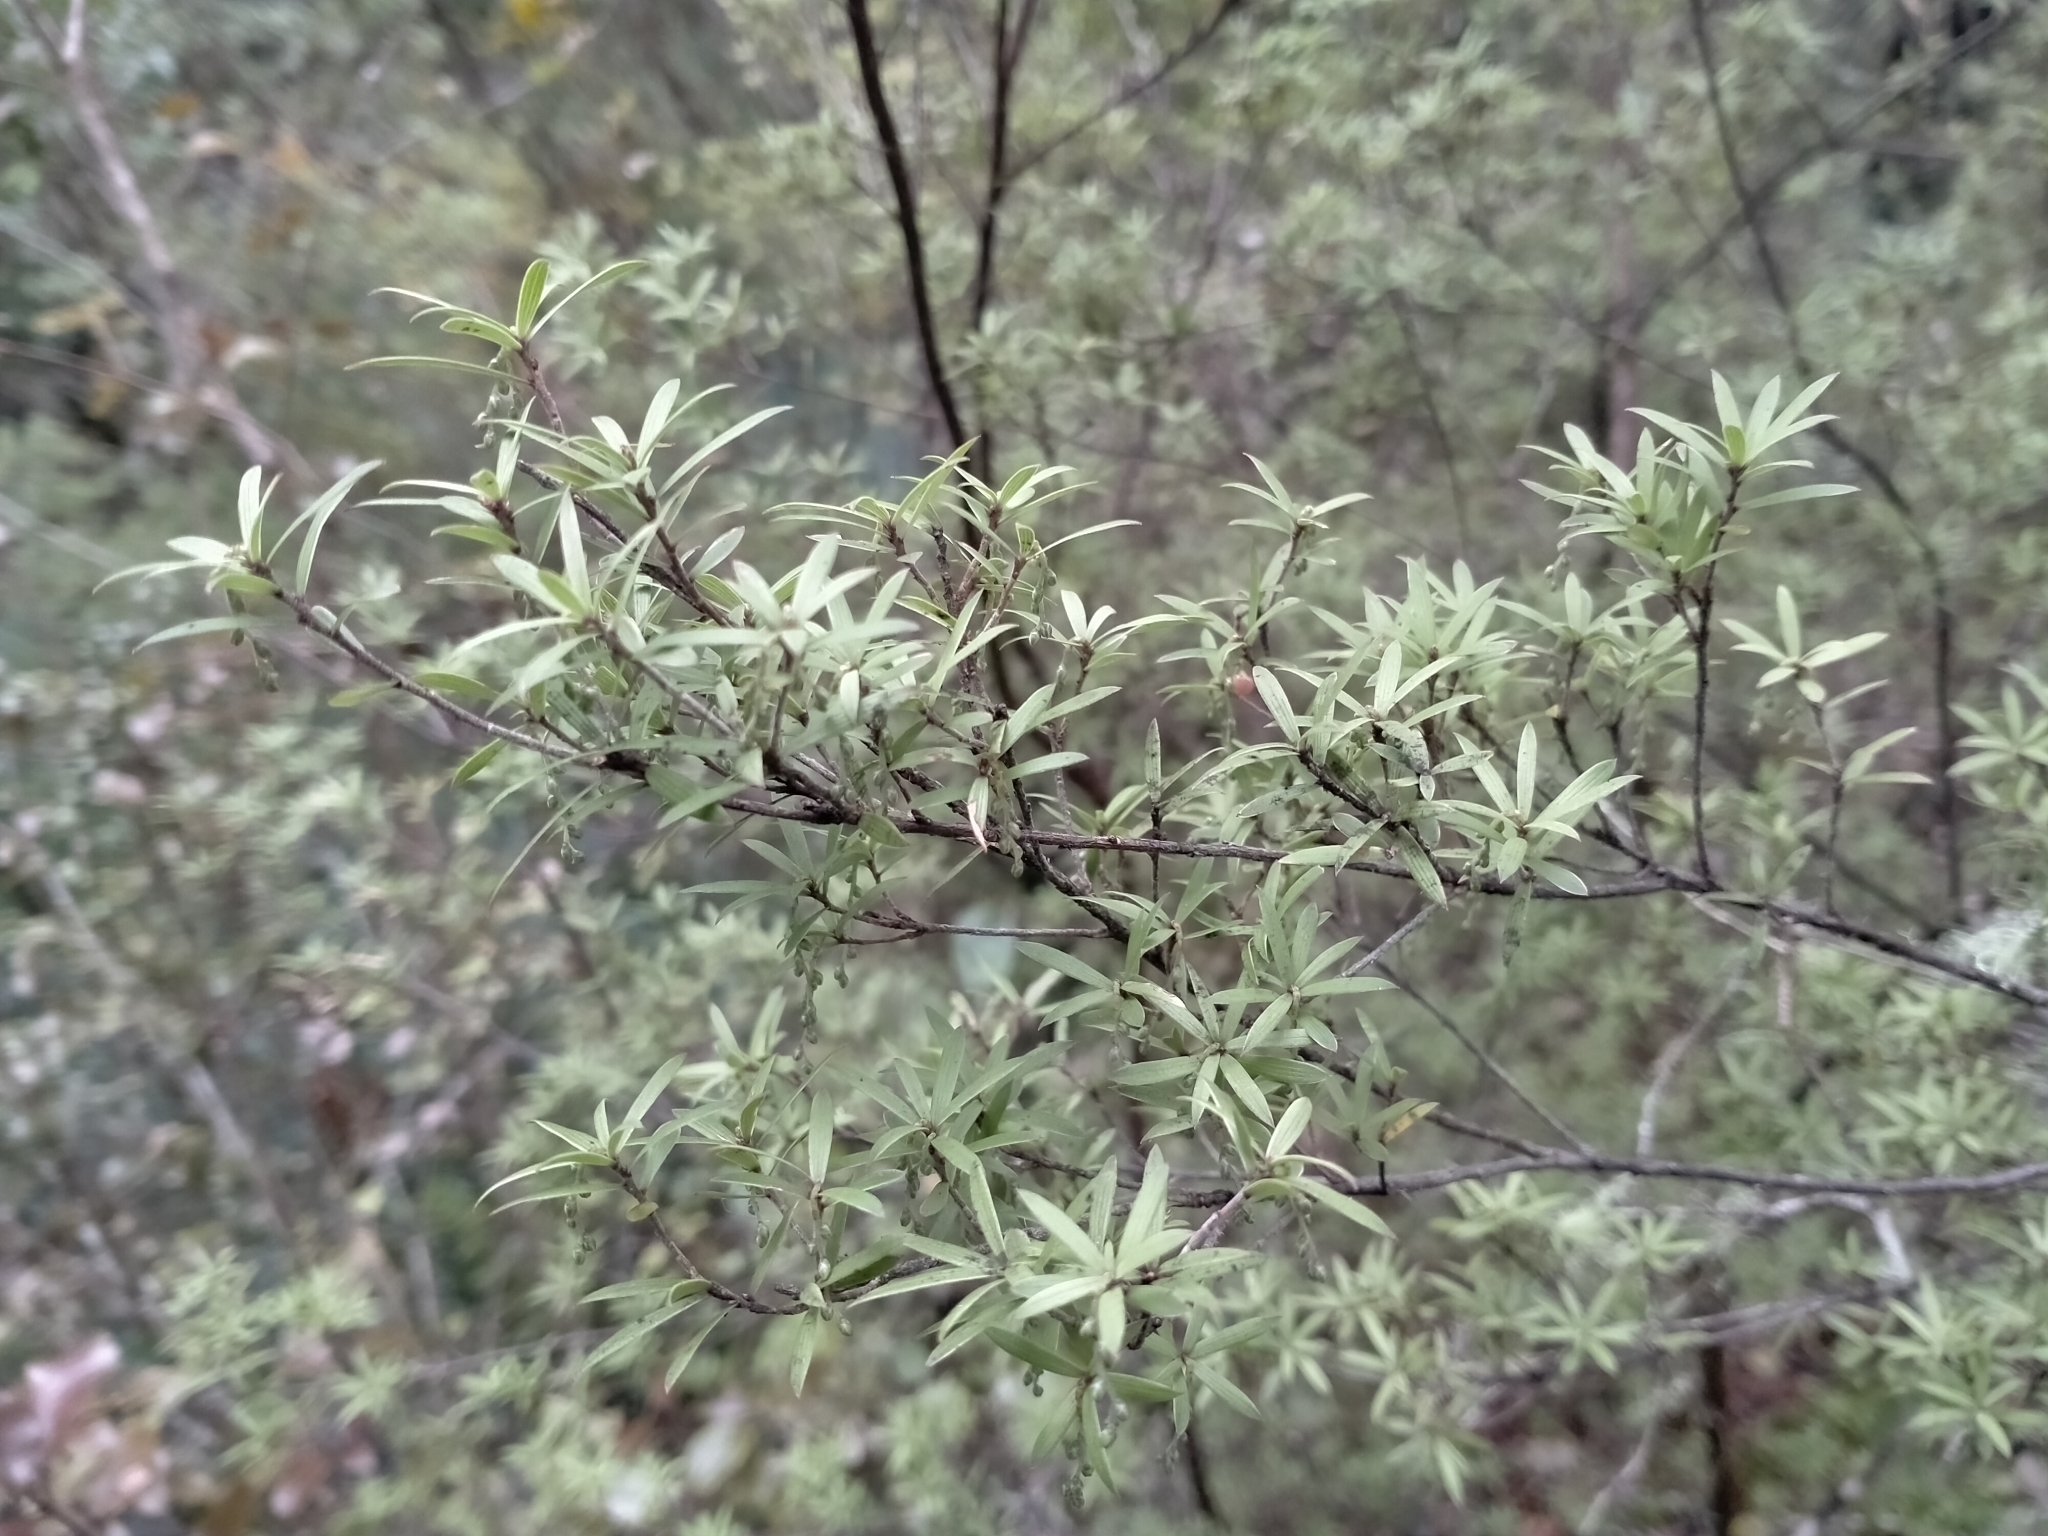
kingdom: Plantae
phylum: Tracheophyta
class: Magnoliopsida
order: Ericales
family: Ericaceae
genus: Leucopogon
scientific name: Leucopogon fasciculatus
